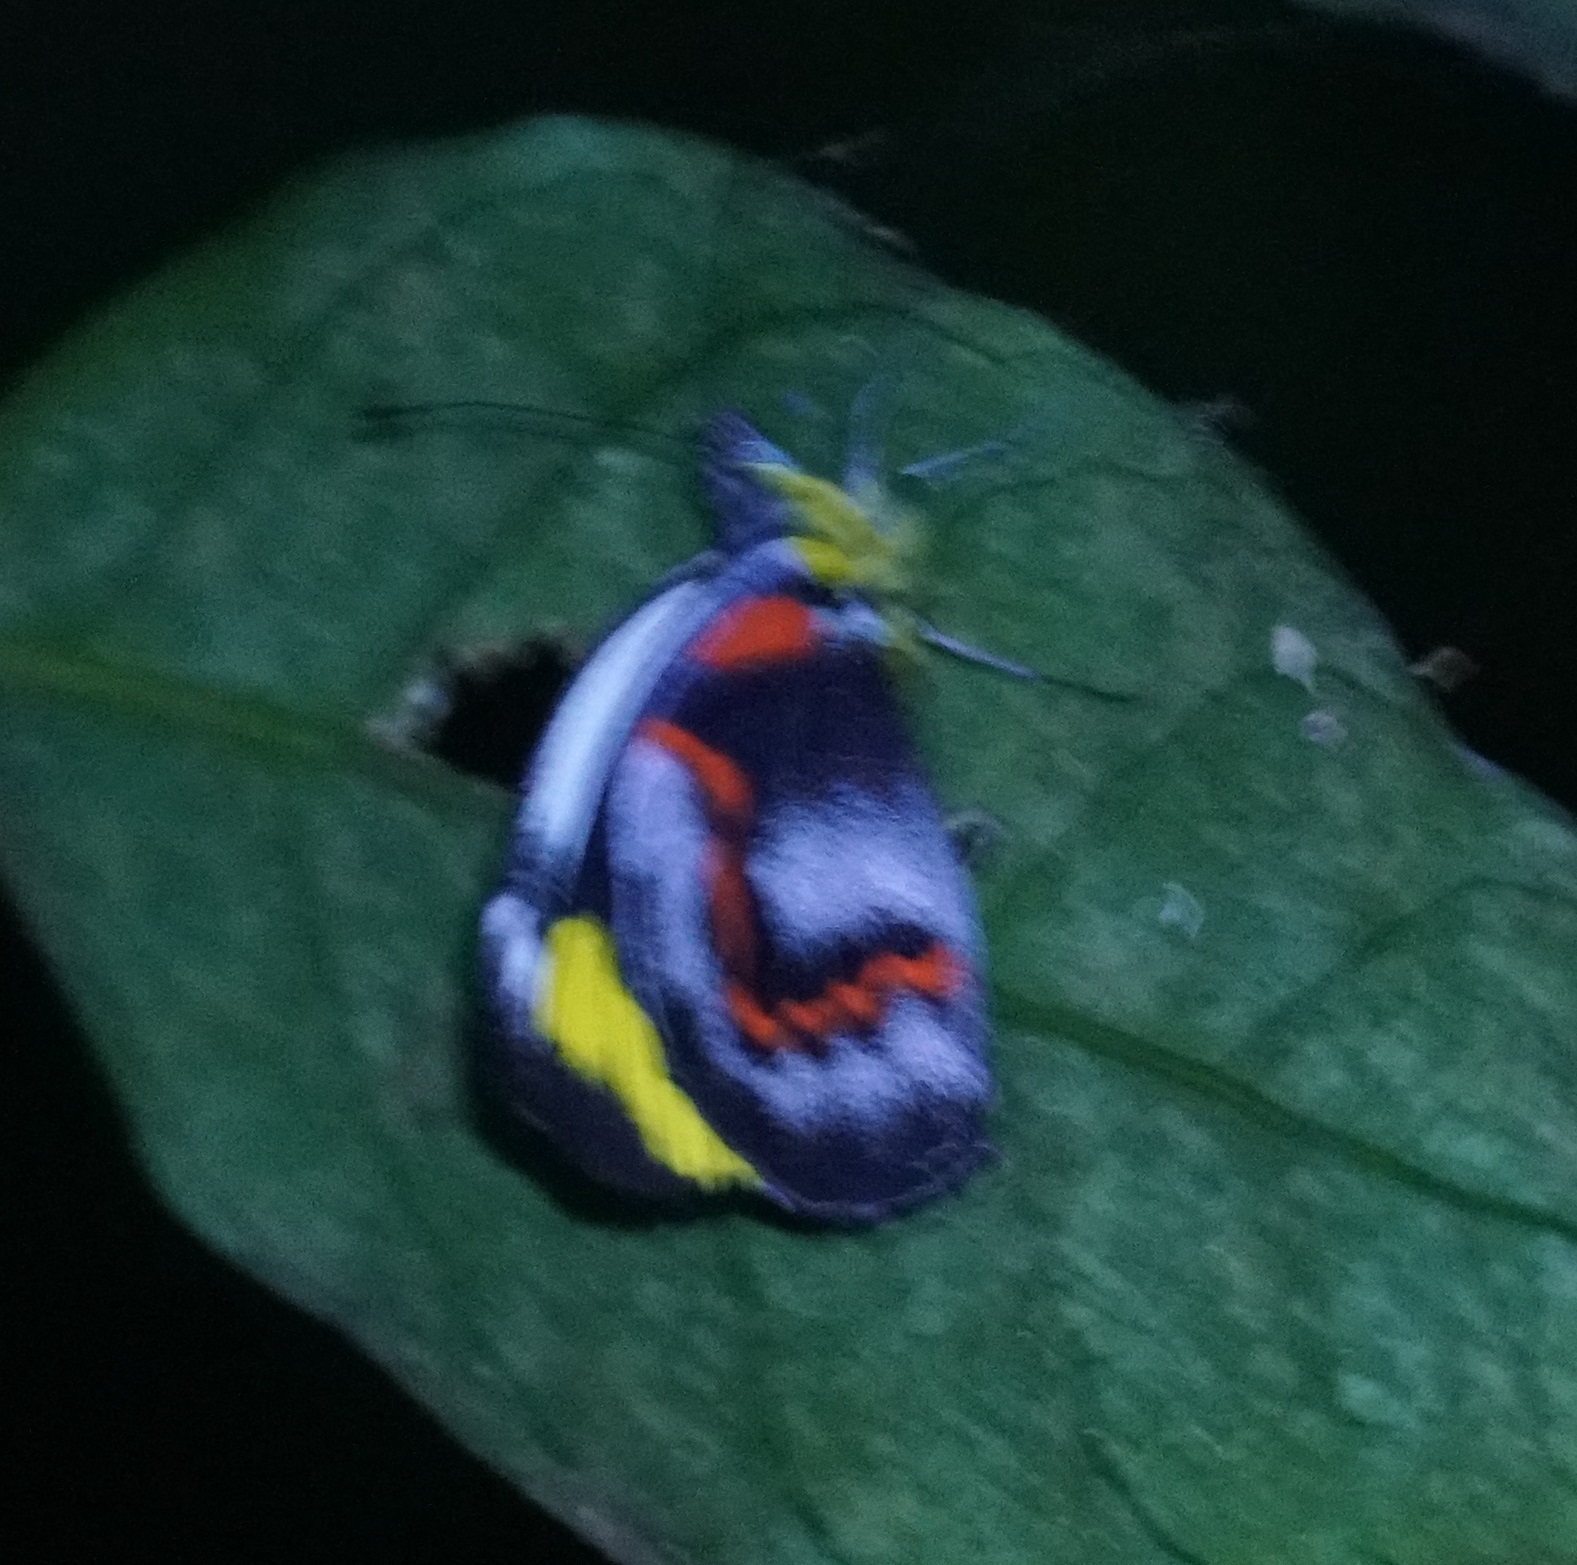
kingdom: Animalia
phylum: Arthropoda
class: Insecta
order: Lepidoptera
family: Pieridae
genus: Delias
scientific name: Delias nigrina
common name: Black jezebel
